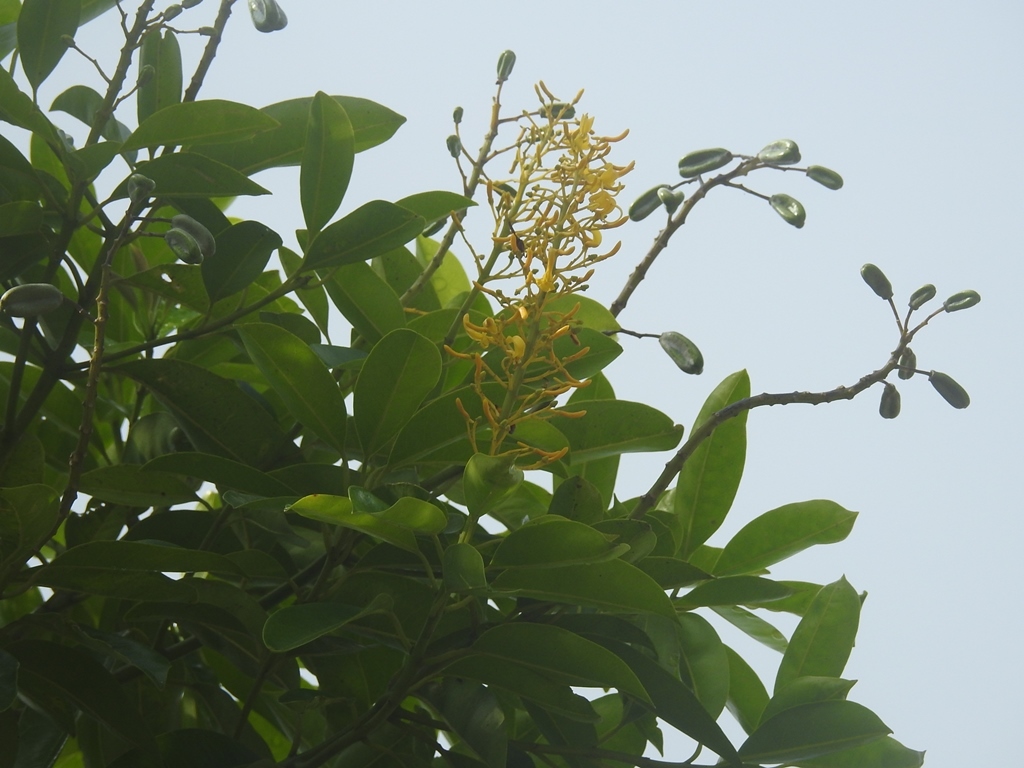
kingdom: Plantae
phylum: Tracheophyta
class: Magnoliopsida
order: Myrtales
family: Vochysiaceae
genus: Vochysia
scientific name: Vochysia guatemalensis
